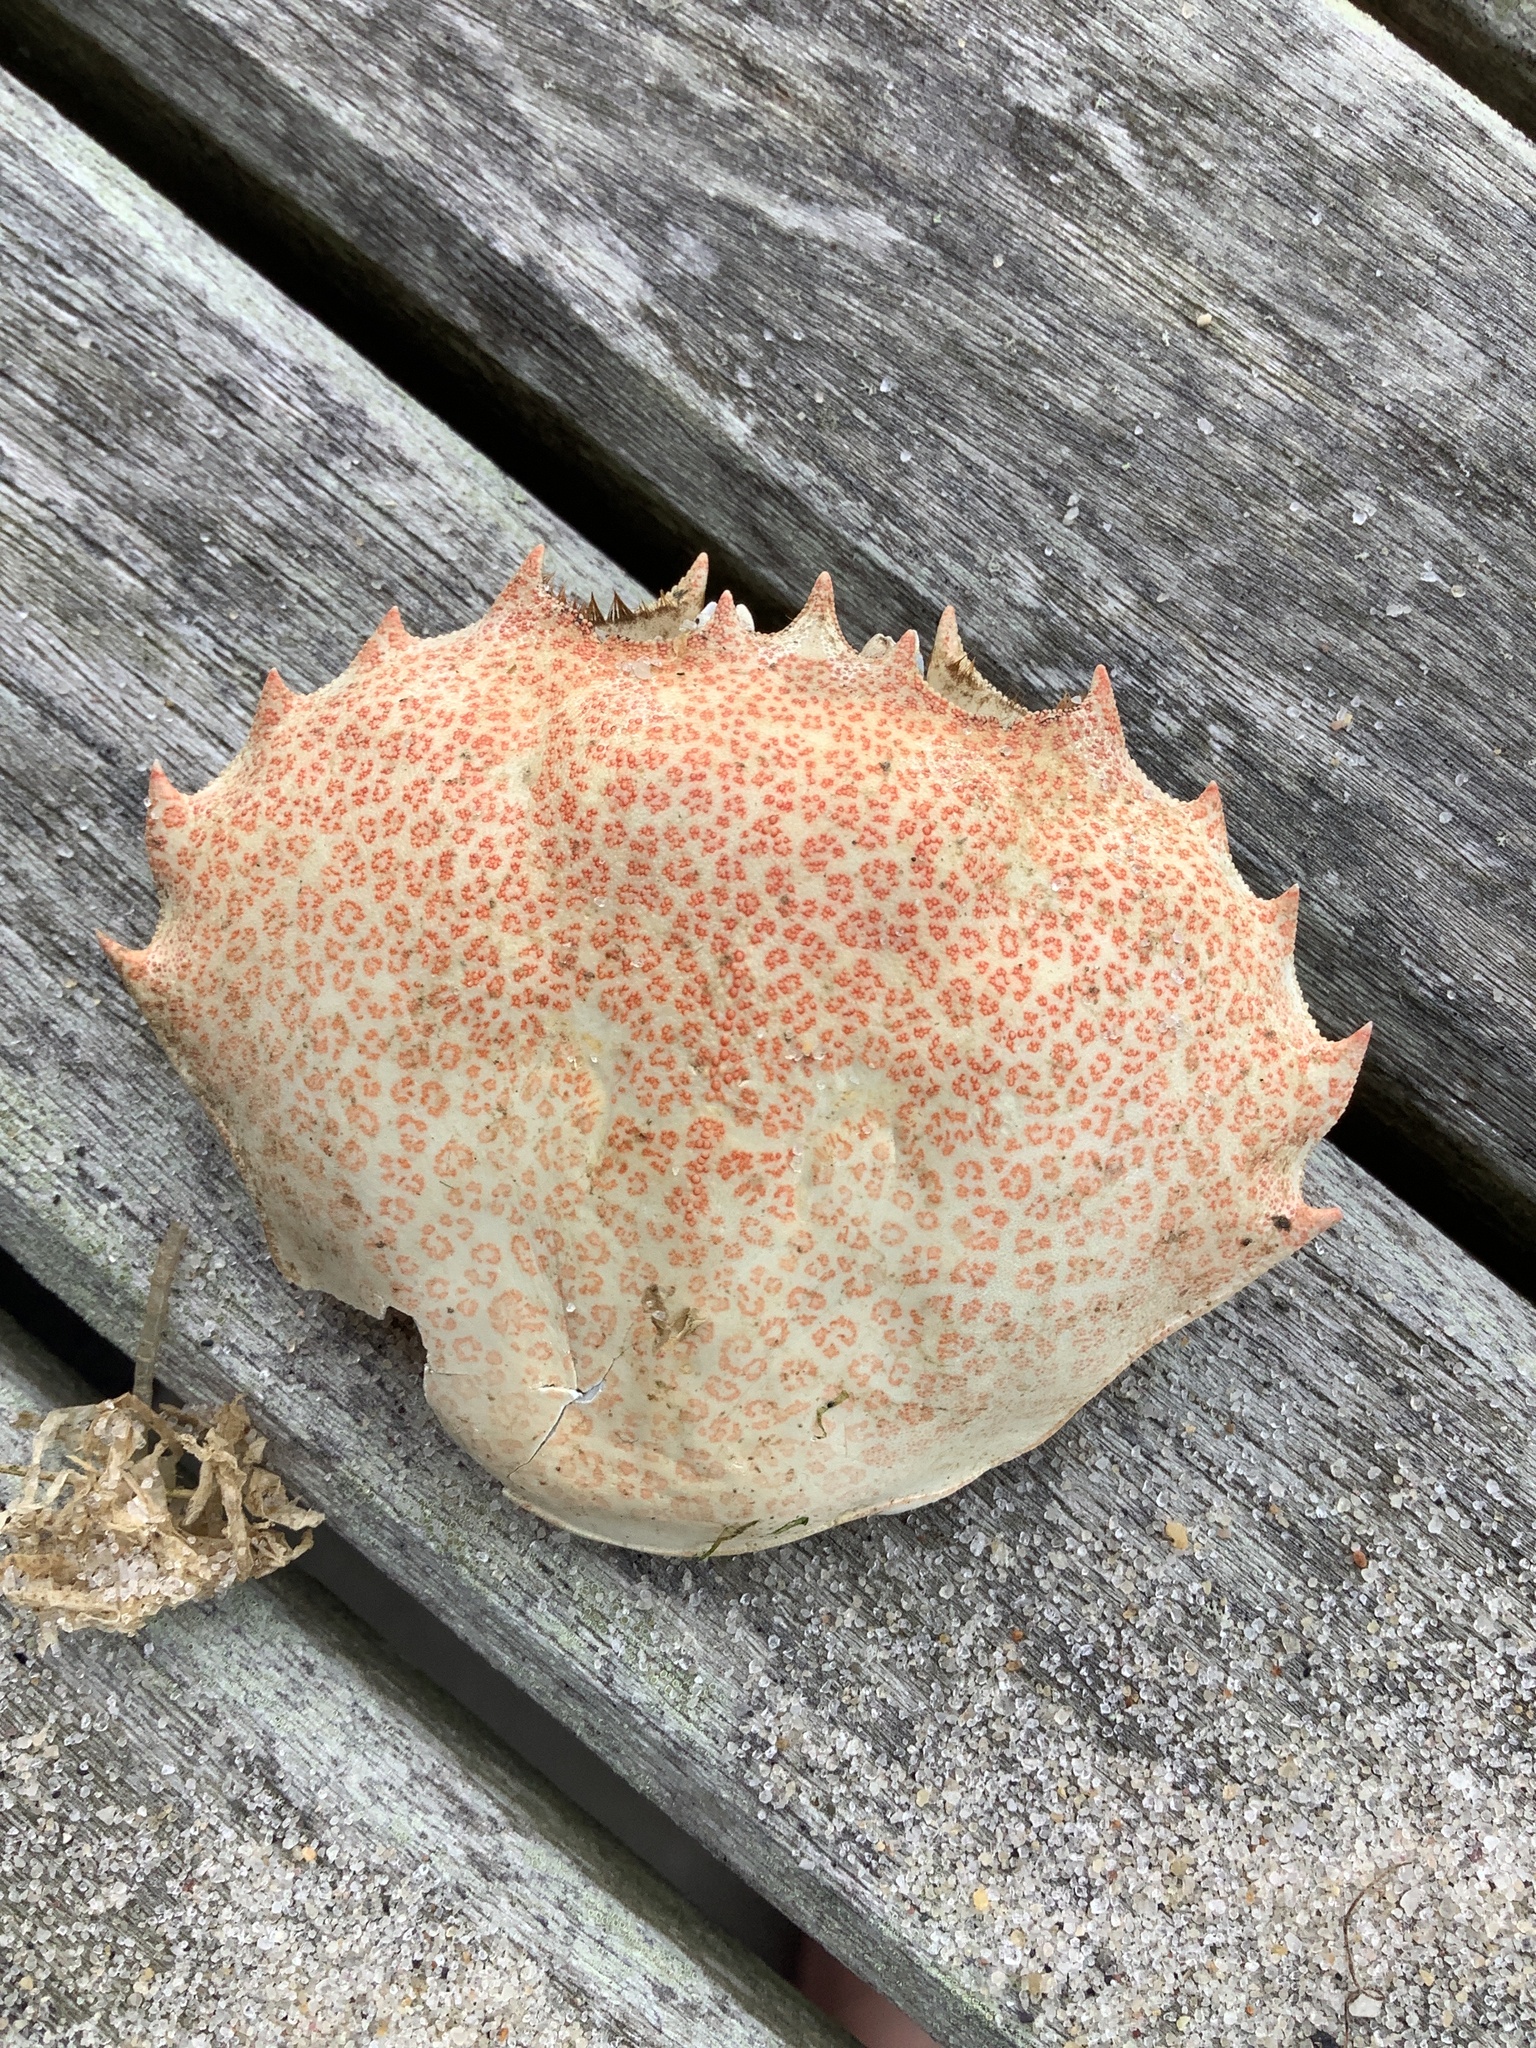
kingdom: Animalia
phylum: Arthropoda
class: Malacostraca
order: Decapoda
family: Ovalipidae
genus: Ovalipes
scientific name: Ovalipes ocellatus
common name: Lady crab
